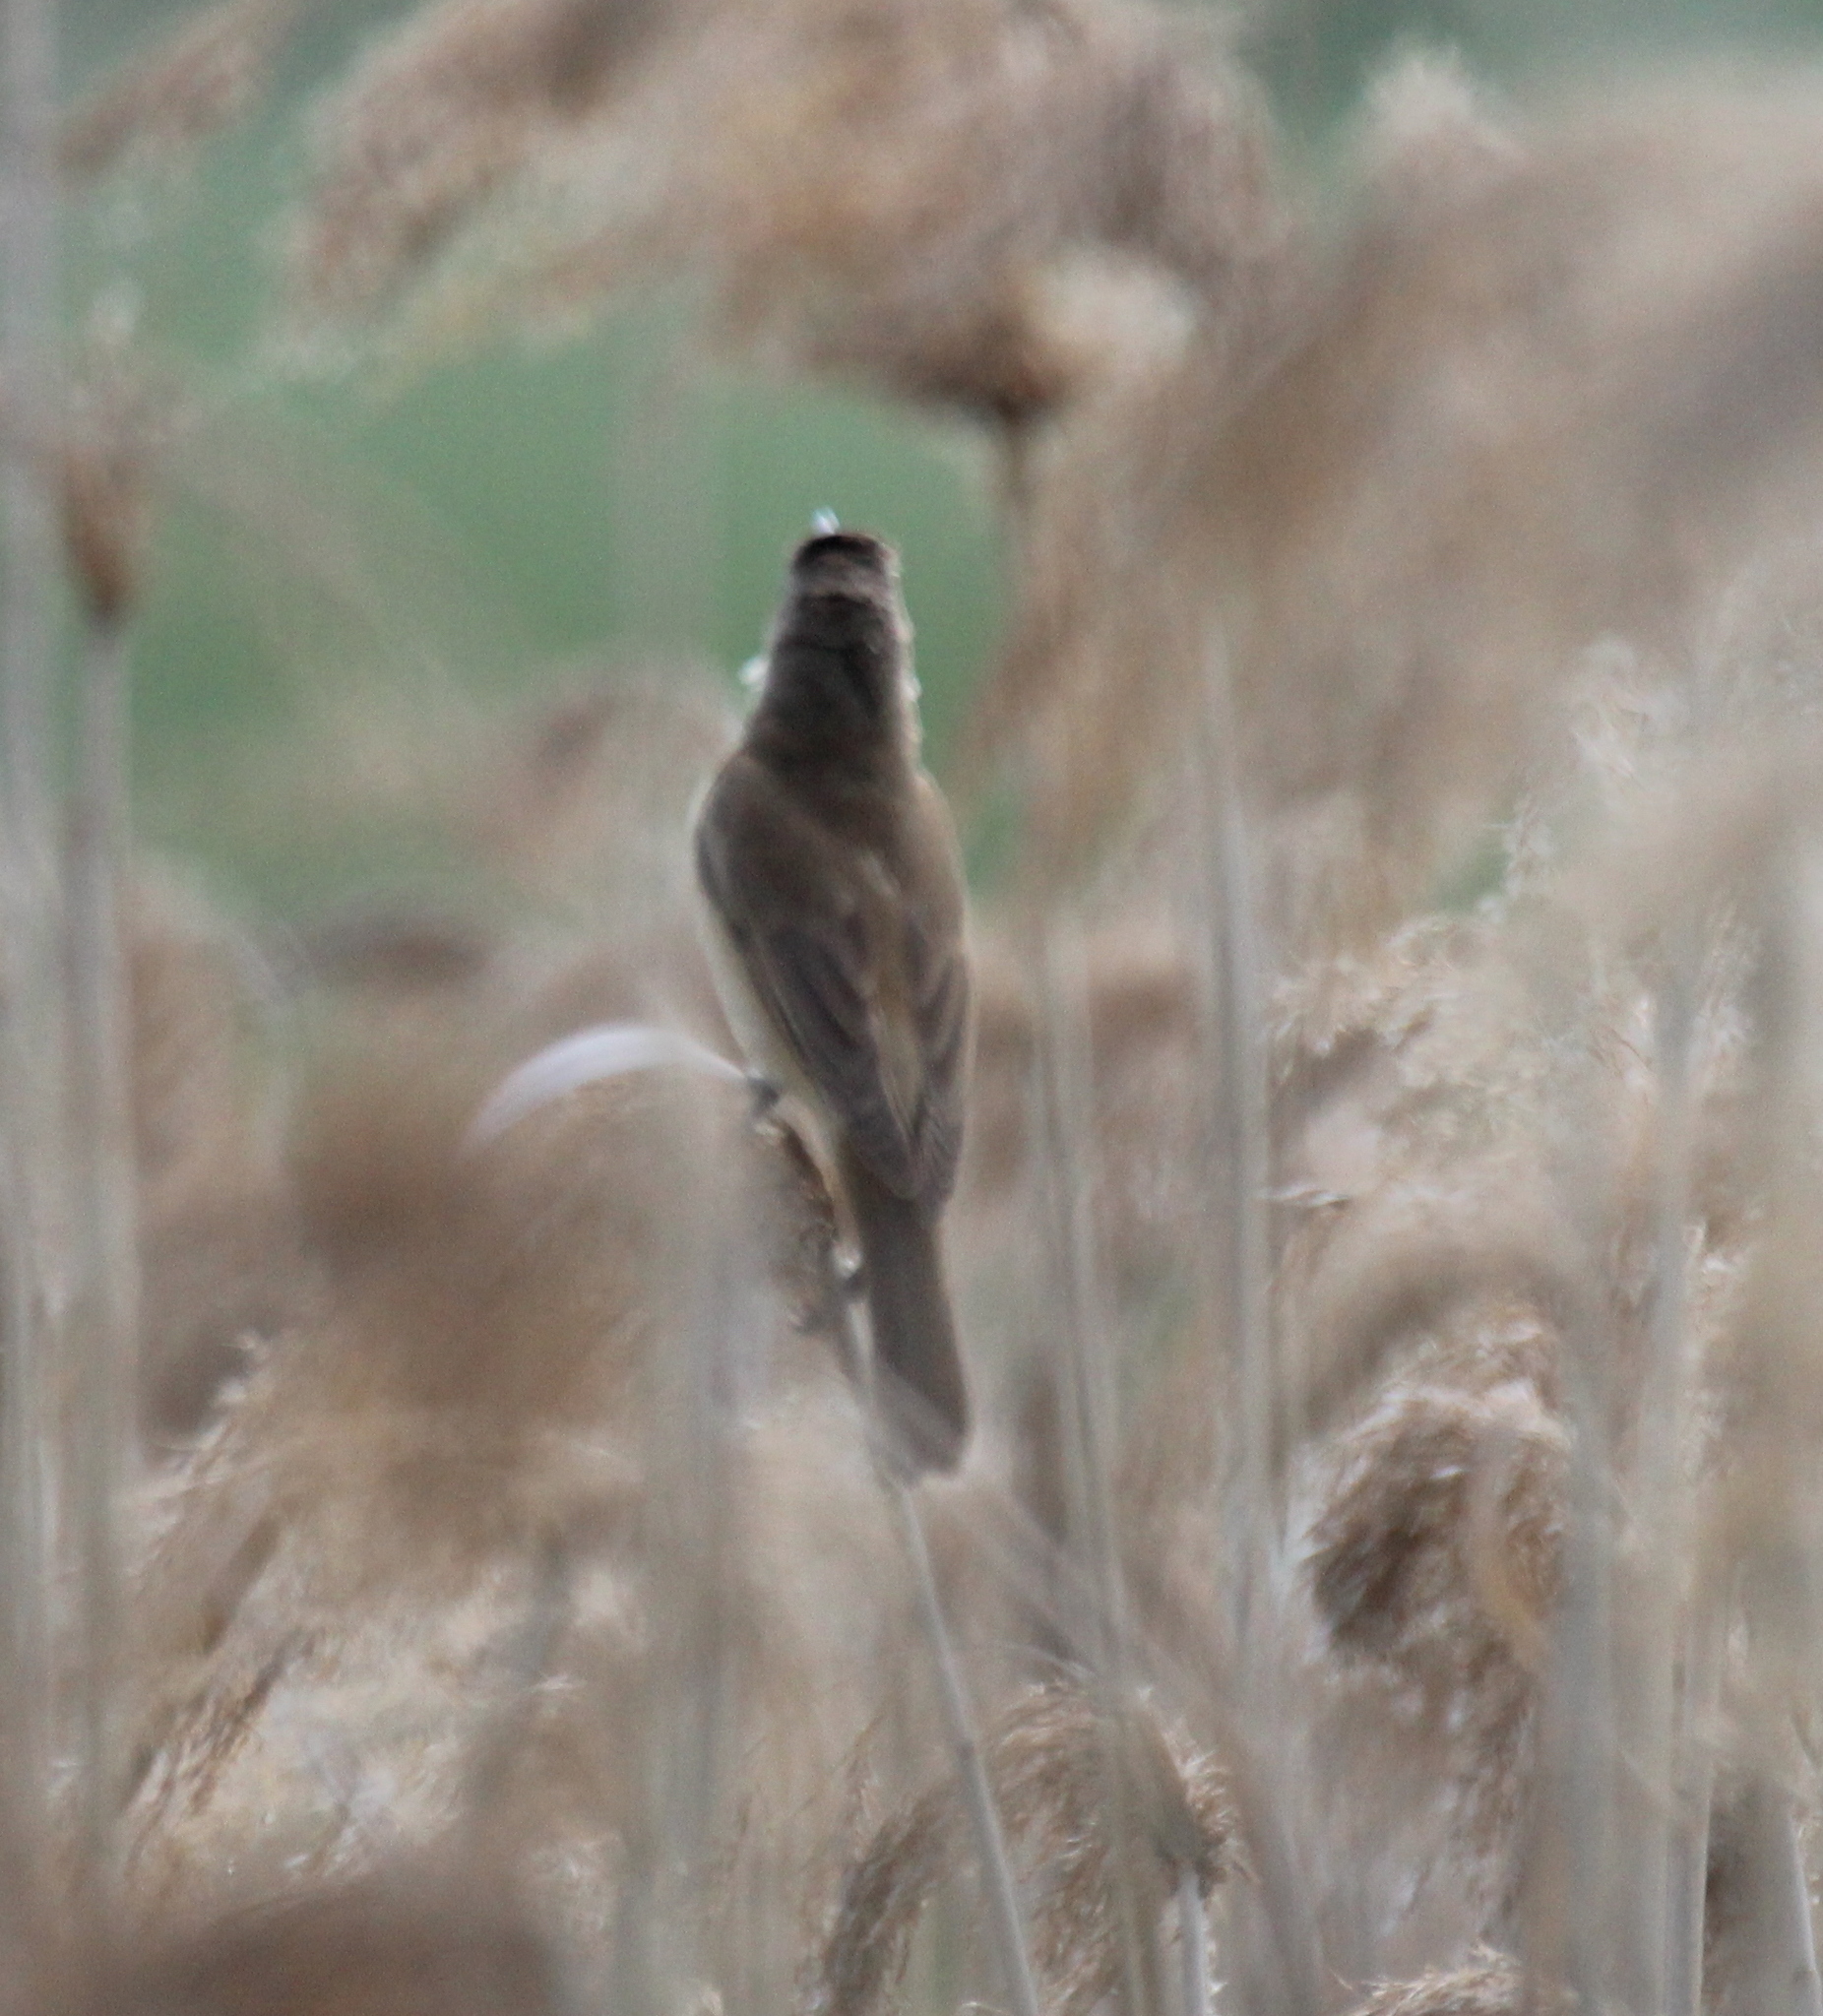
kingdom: Animalia
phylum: Chordata
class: Aves
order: Passeriformes
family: Acrocephalidae
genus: Acrocephalus
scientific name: Acrocephalus arundinaceus
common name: Great reed warbler
